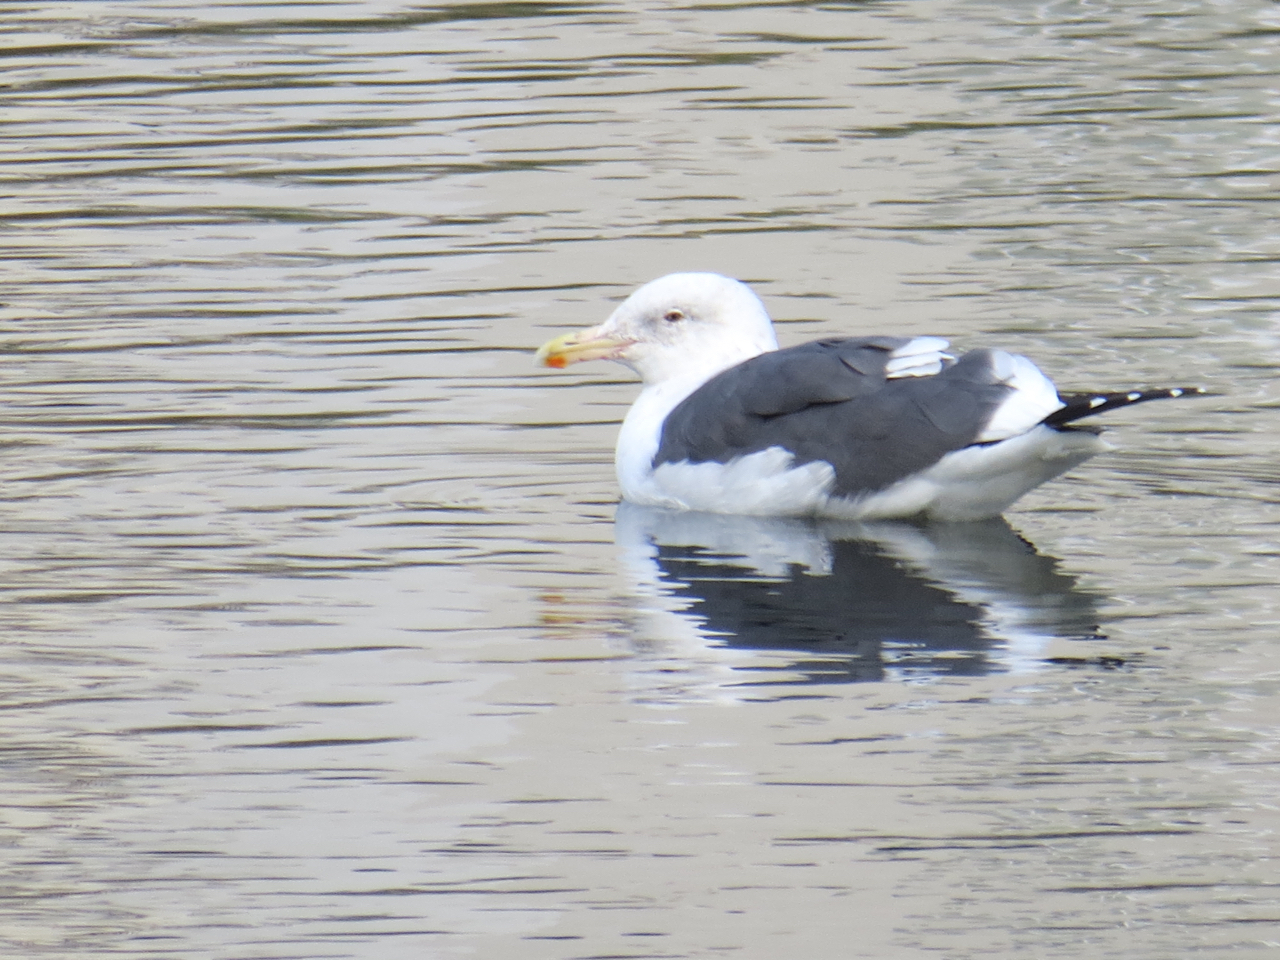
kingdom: Animalia
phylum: Chordata
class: Aves
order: Charadriiformes
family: Laridae
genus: Larus
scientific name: Larus occidentalis
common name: Western gull
